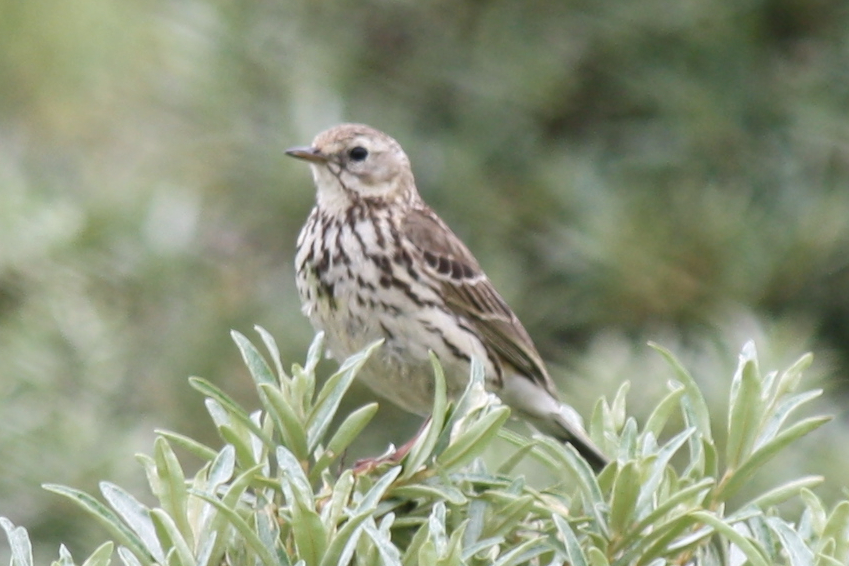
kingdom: Animalia
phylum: Chordata
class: Aves
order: Passeriformes
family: Motacillidae
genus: Anthus
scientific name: Anthus pratensis
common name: Meadow pipit
